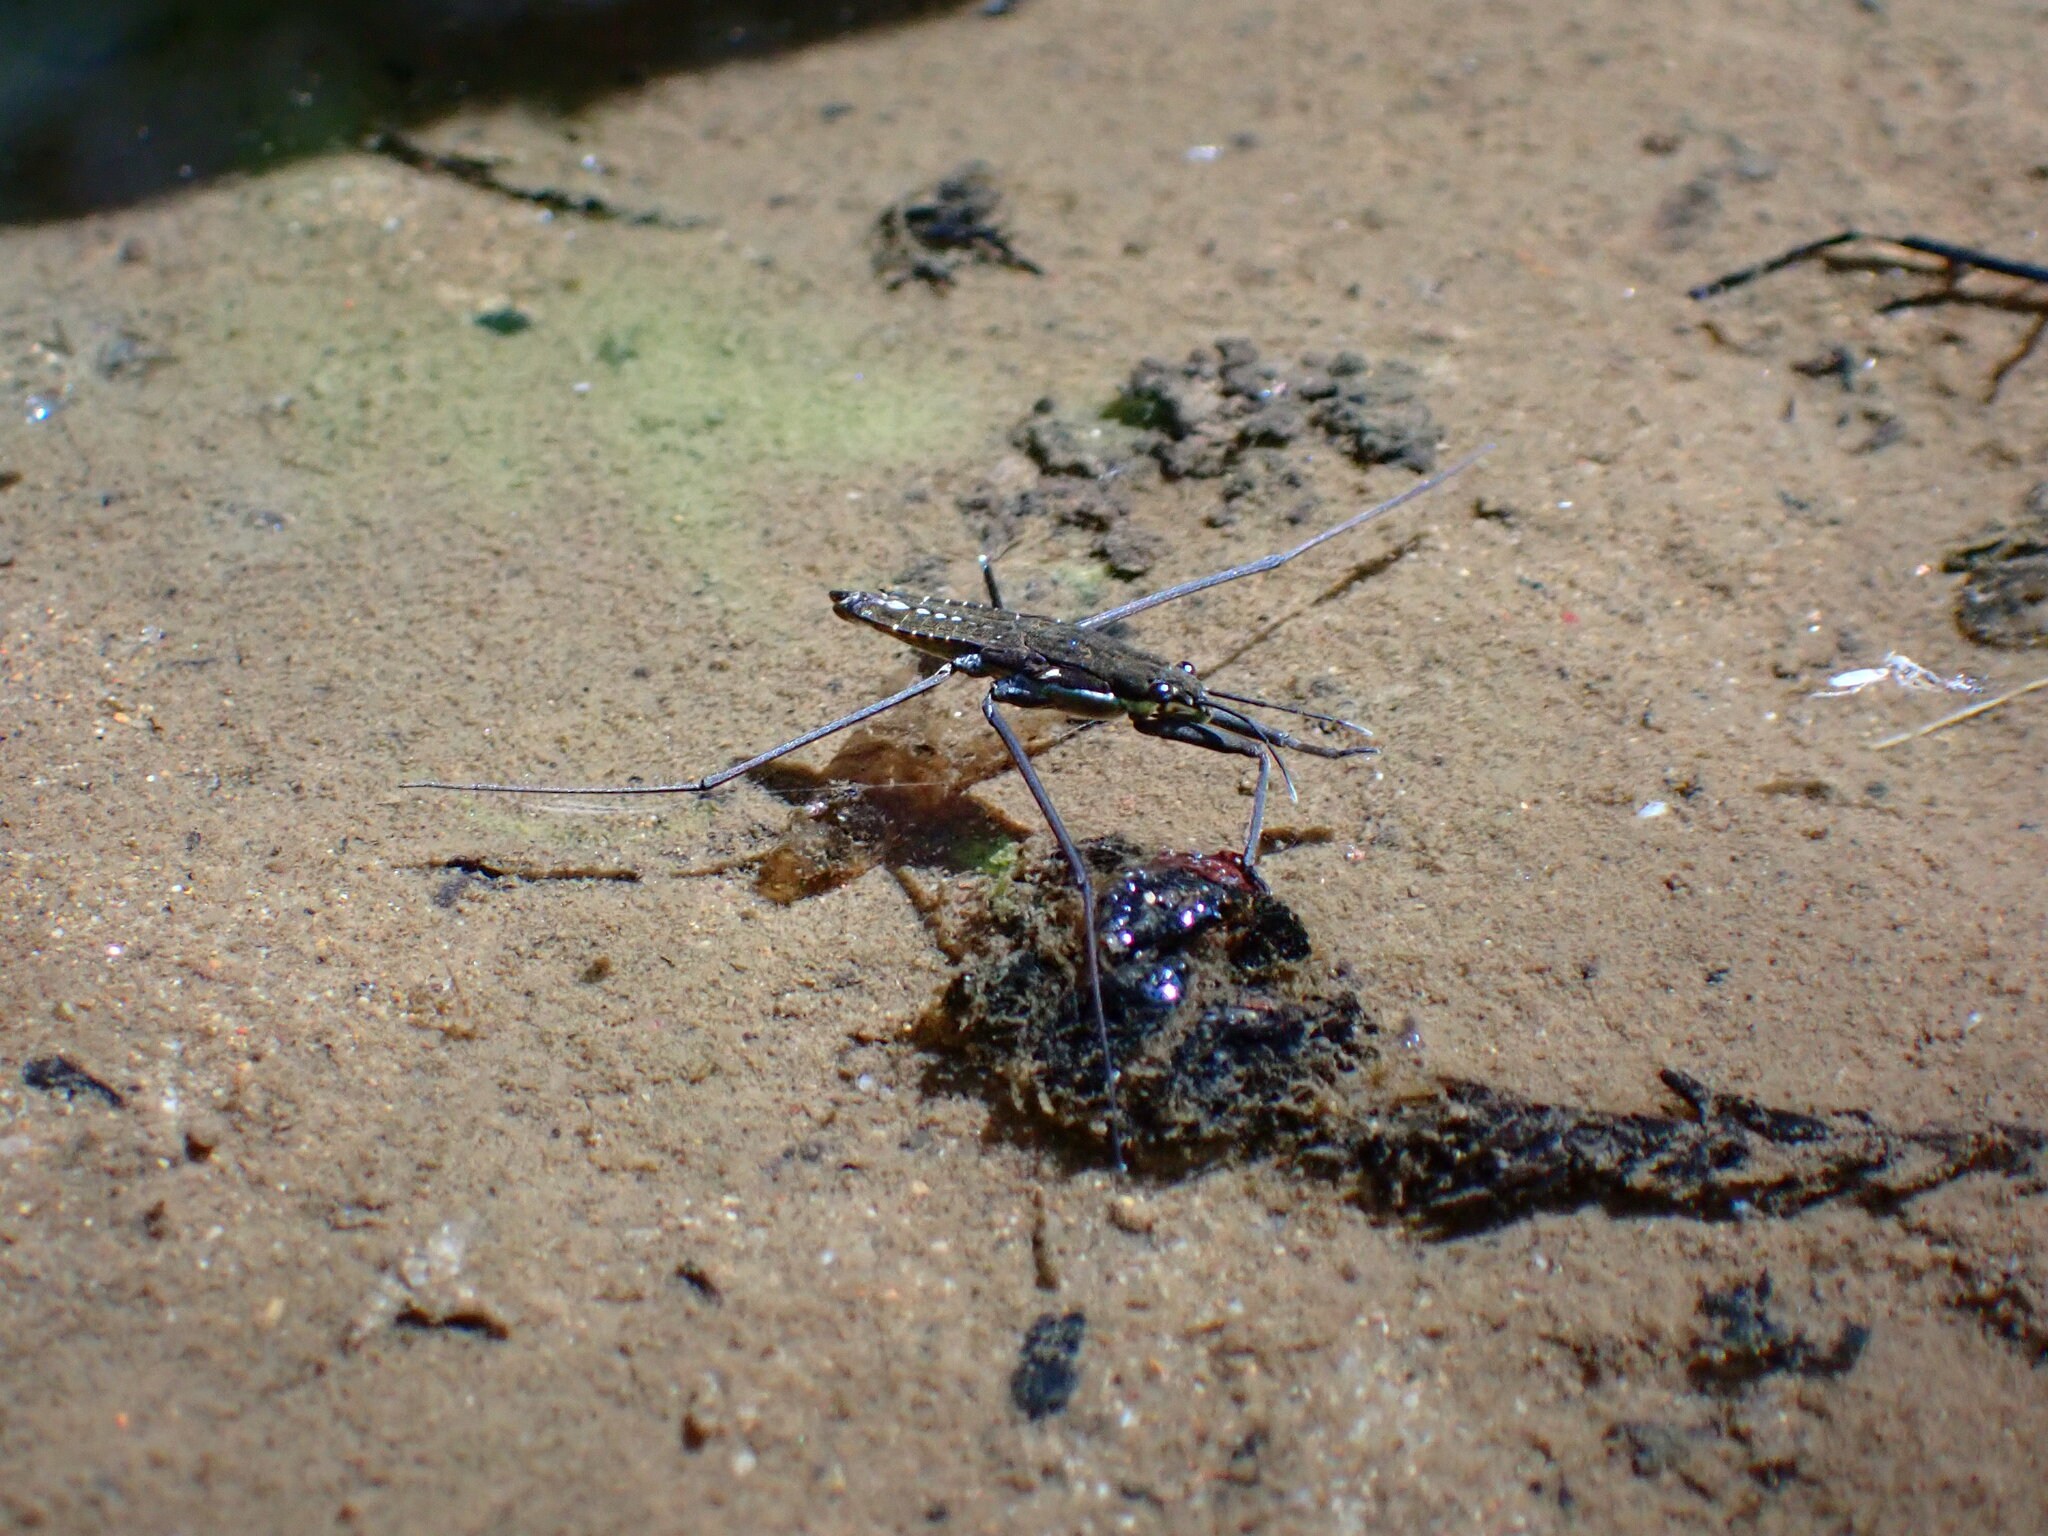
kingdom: Animalia
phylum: Arthropoda
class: Insecta
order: Hemiptera
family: Gerridae
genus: Aquarius
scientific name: Aquarius remigis
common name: Common water strider
